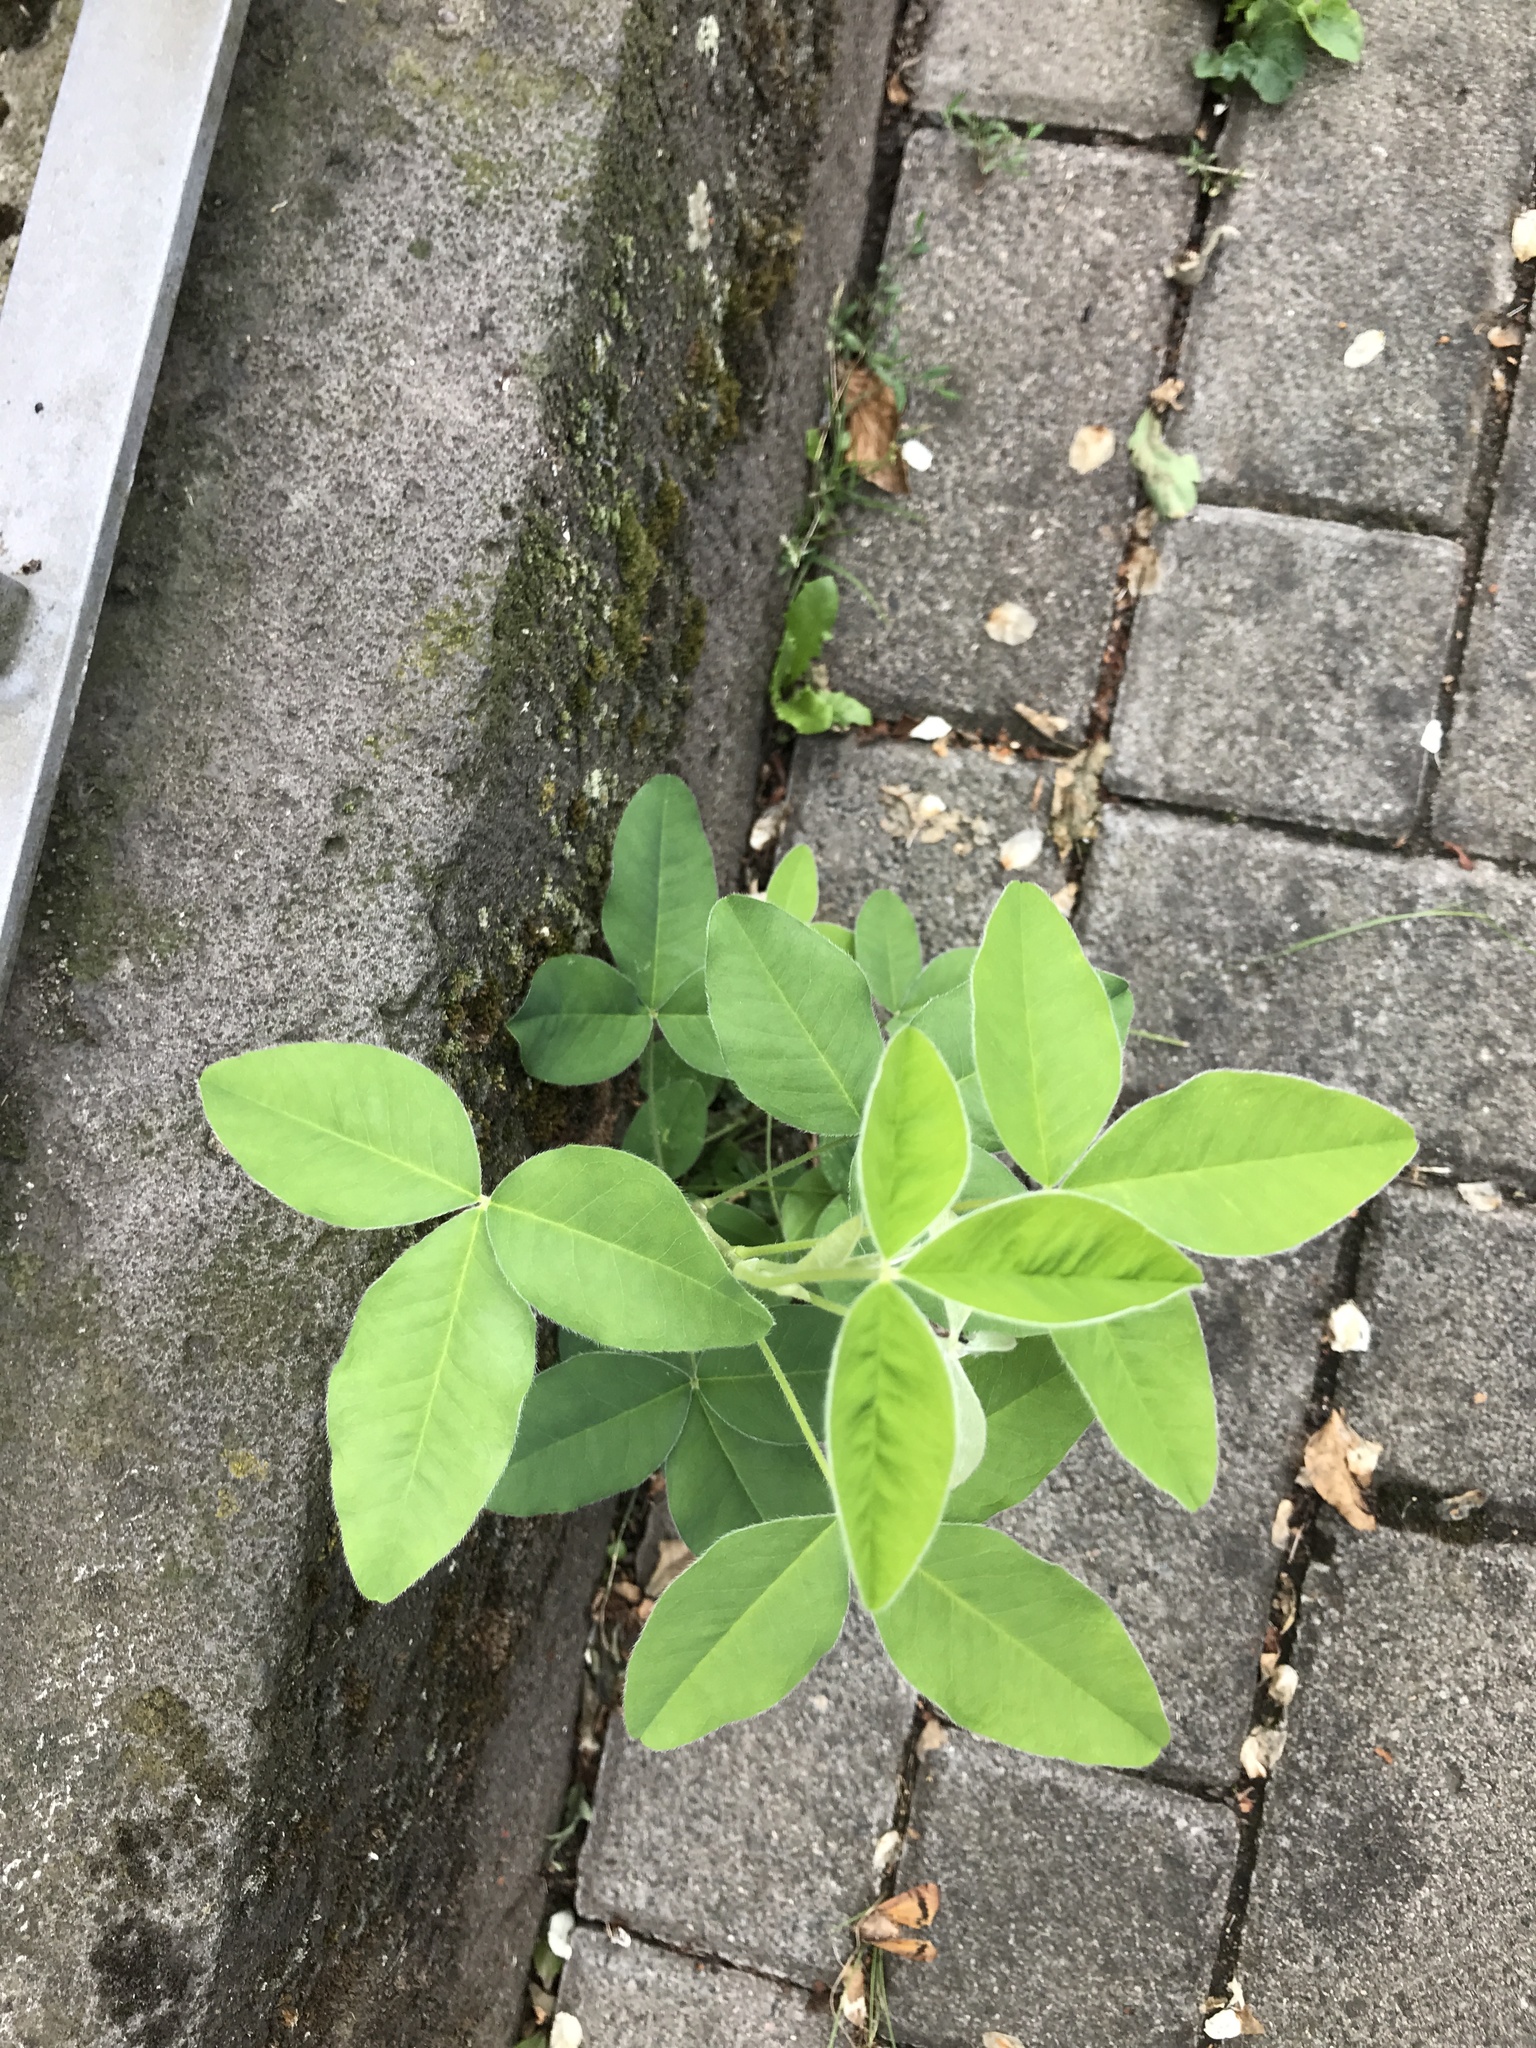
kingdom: Plantae
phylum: Tracheophyta
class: Magnoliopsida
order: Fabales
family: Fabaceae
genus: Laburnum
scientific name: Laburnum anagyroides
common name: Laburnum
